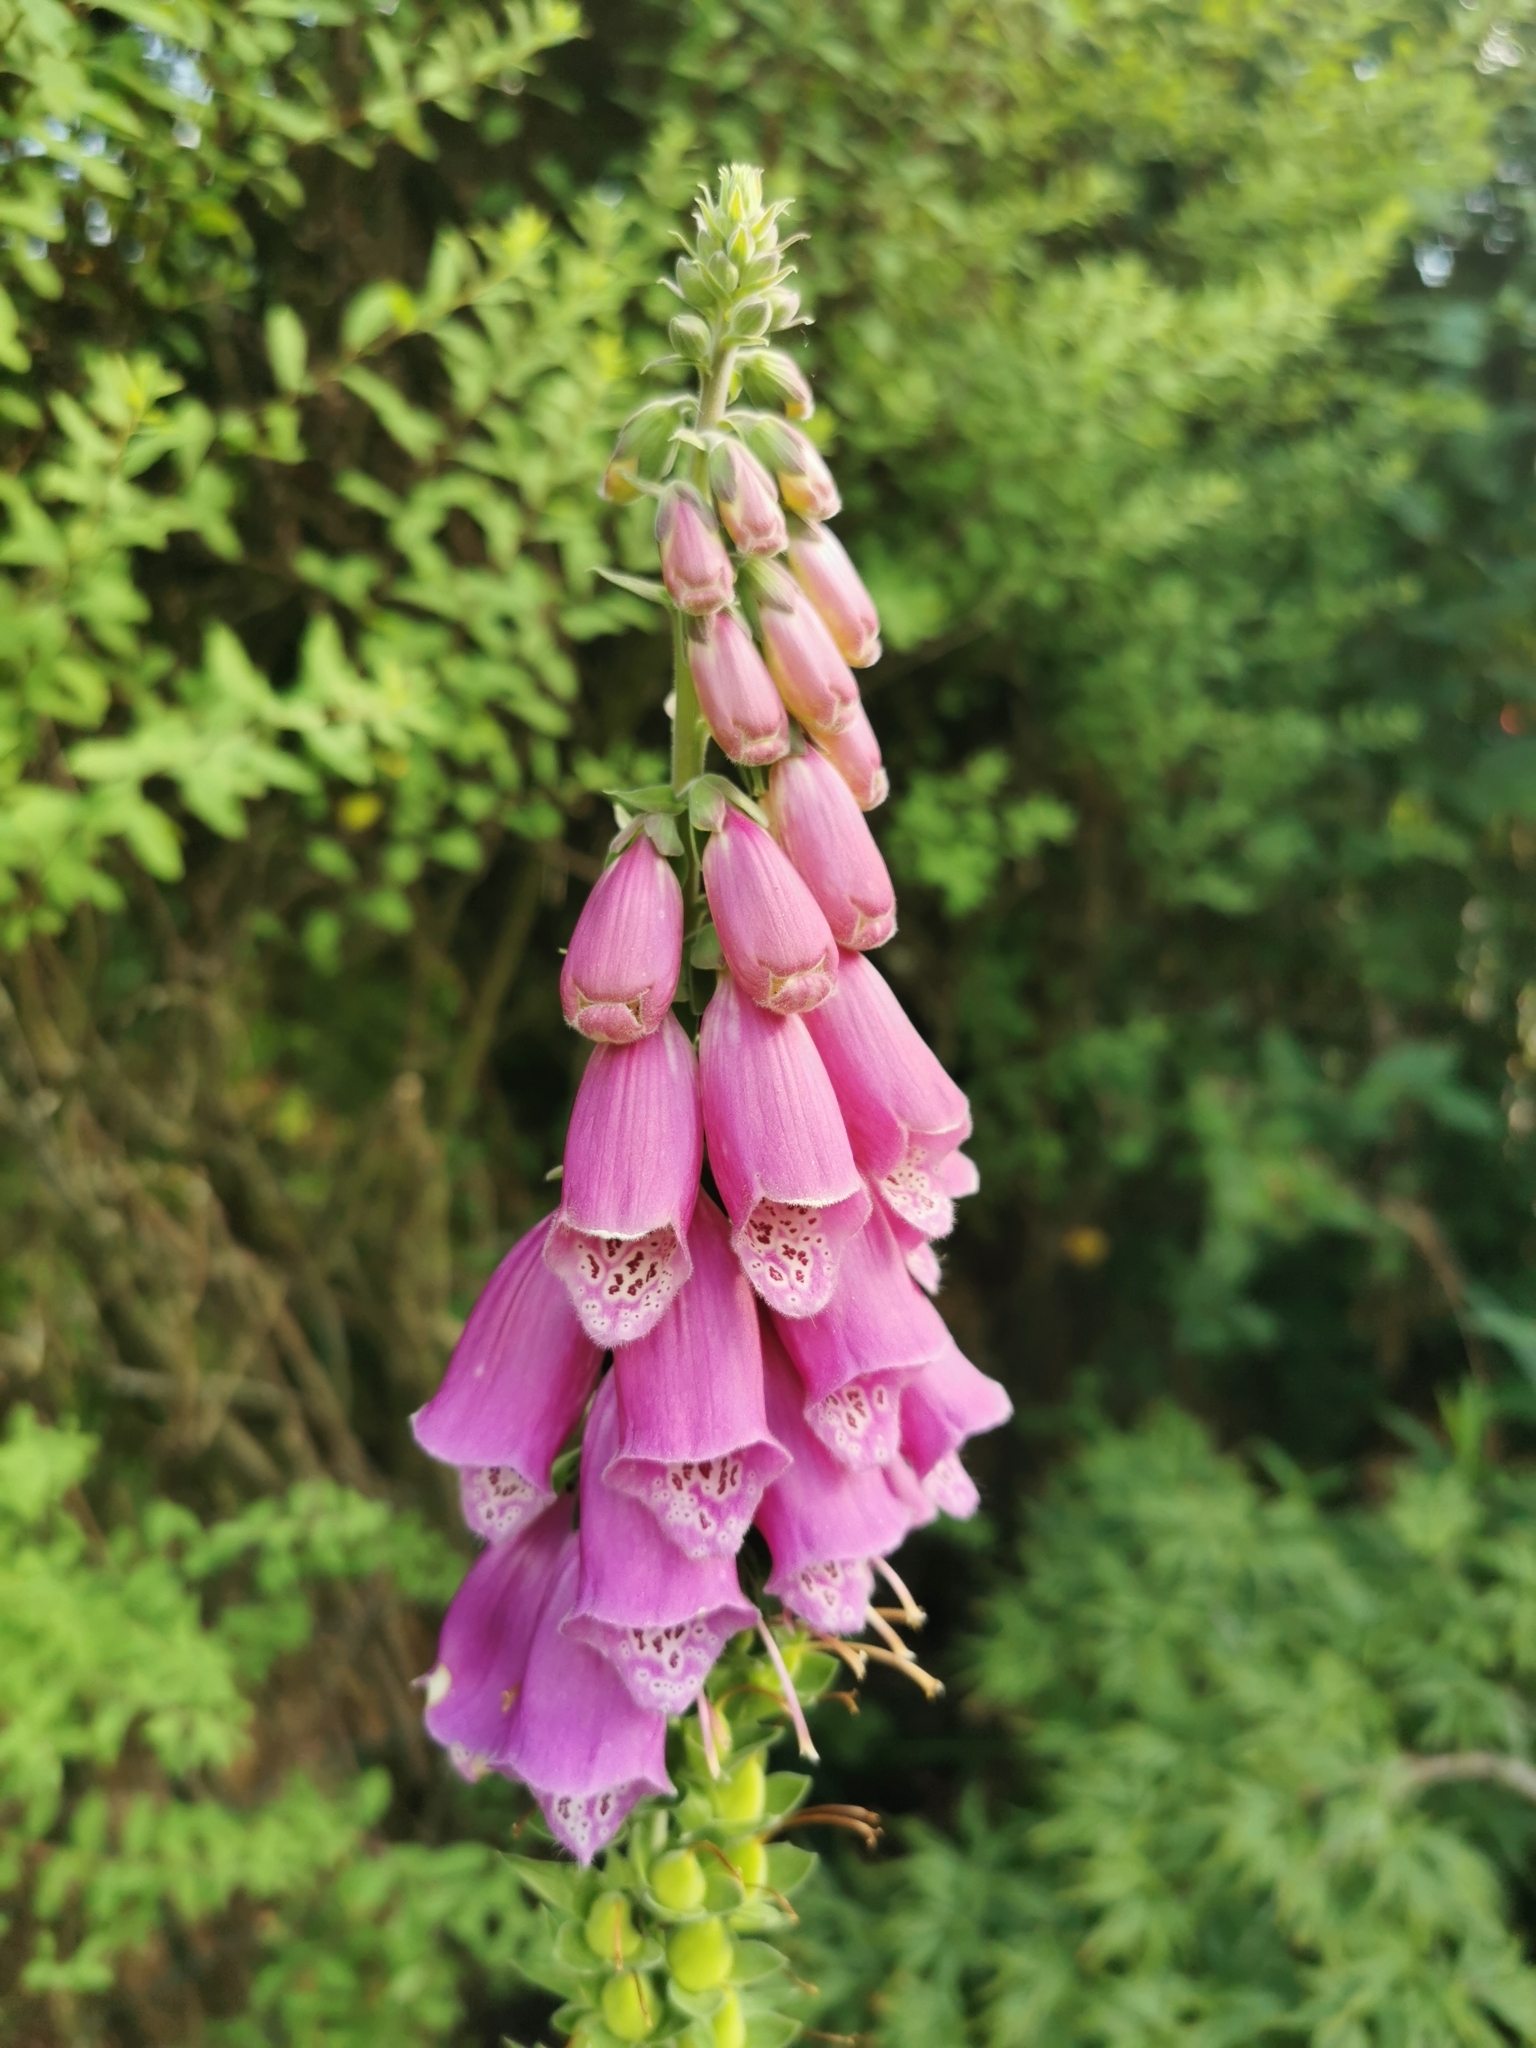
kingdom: Plantae
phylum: Tracheophyta
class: Magnoliopsida
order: Lamiales
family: Plantaginaceae
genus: Digitalis
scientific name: Digitalis purpurea
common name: Foxglove
